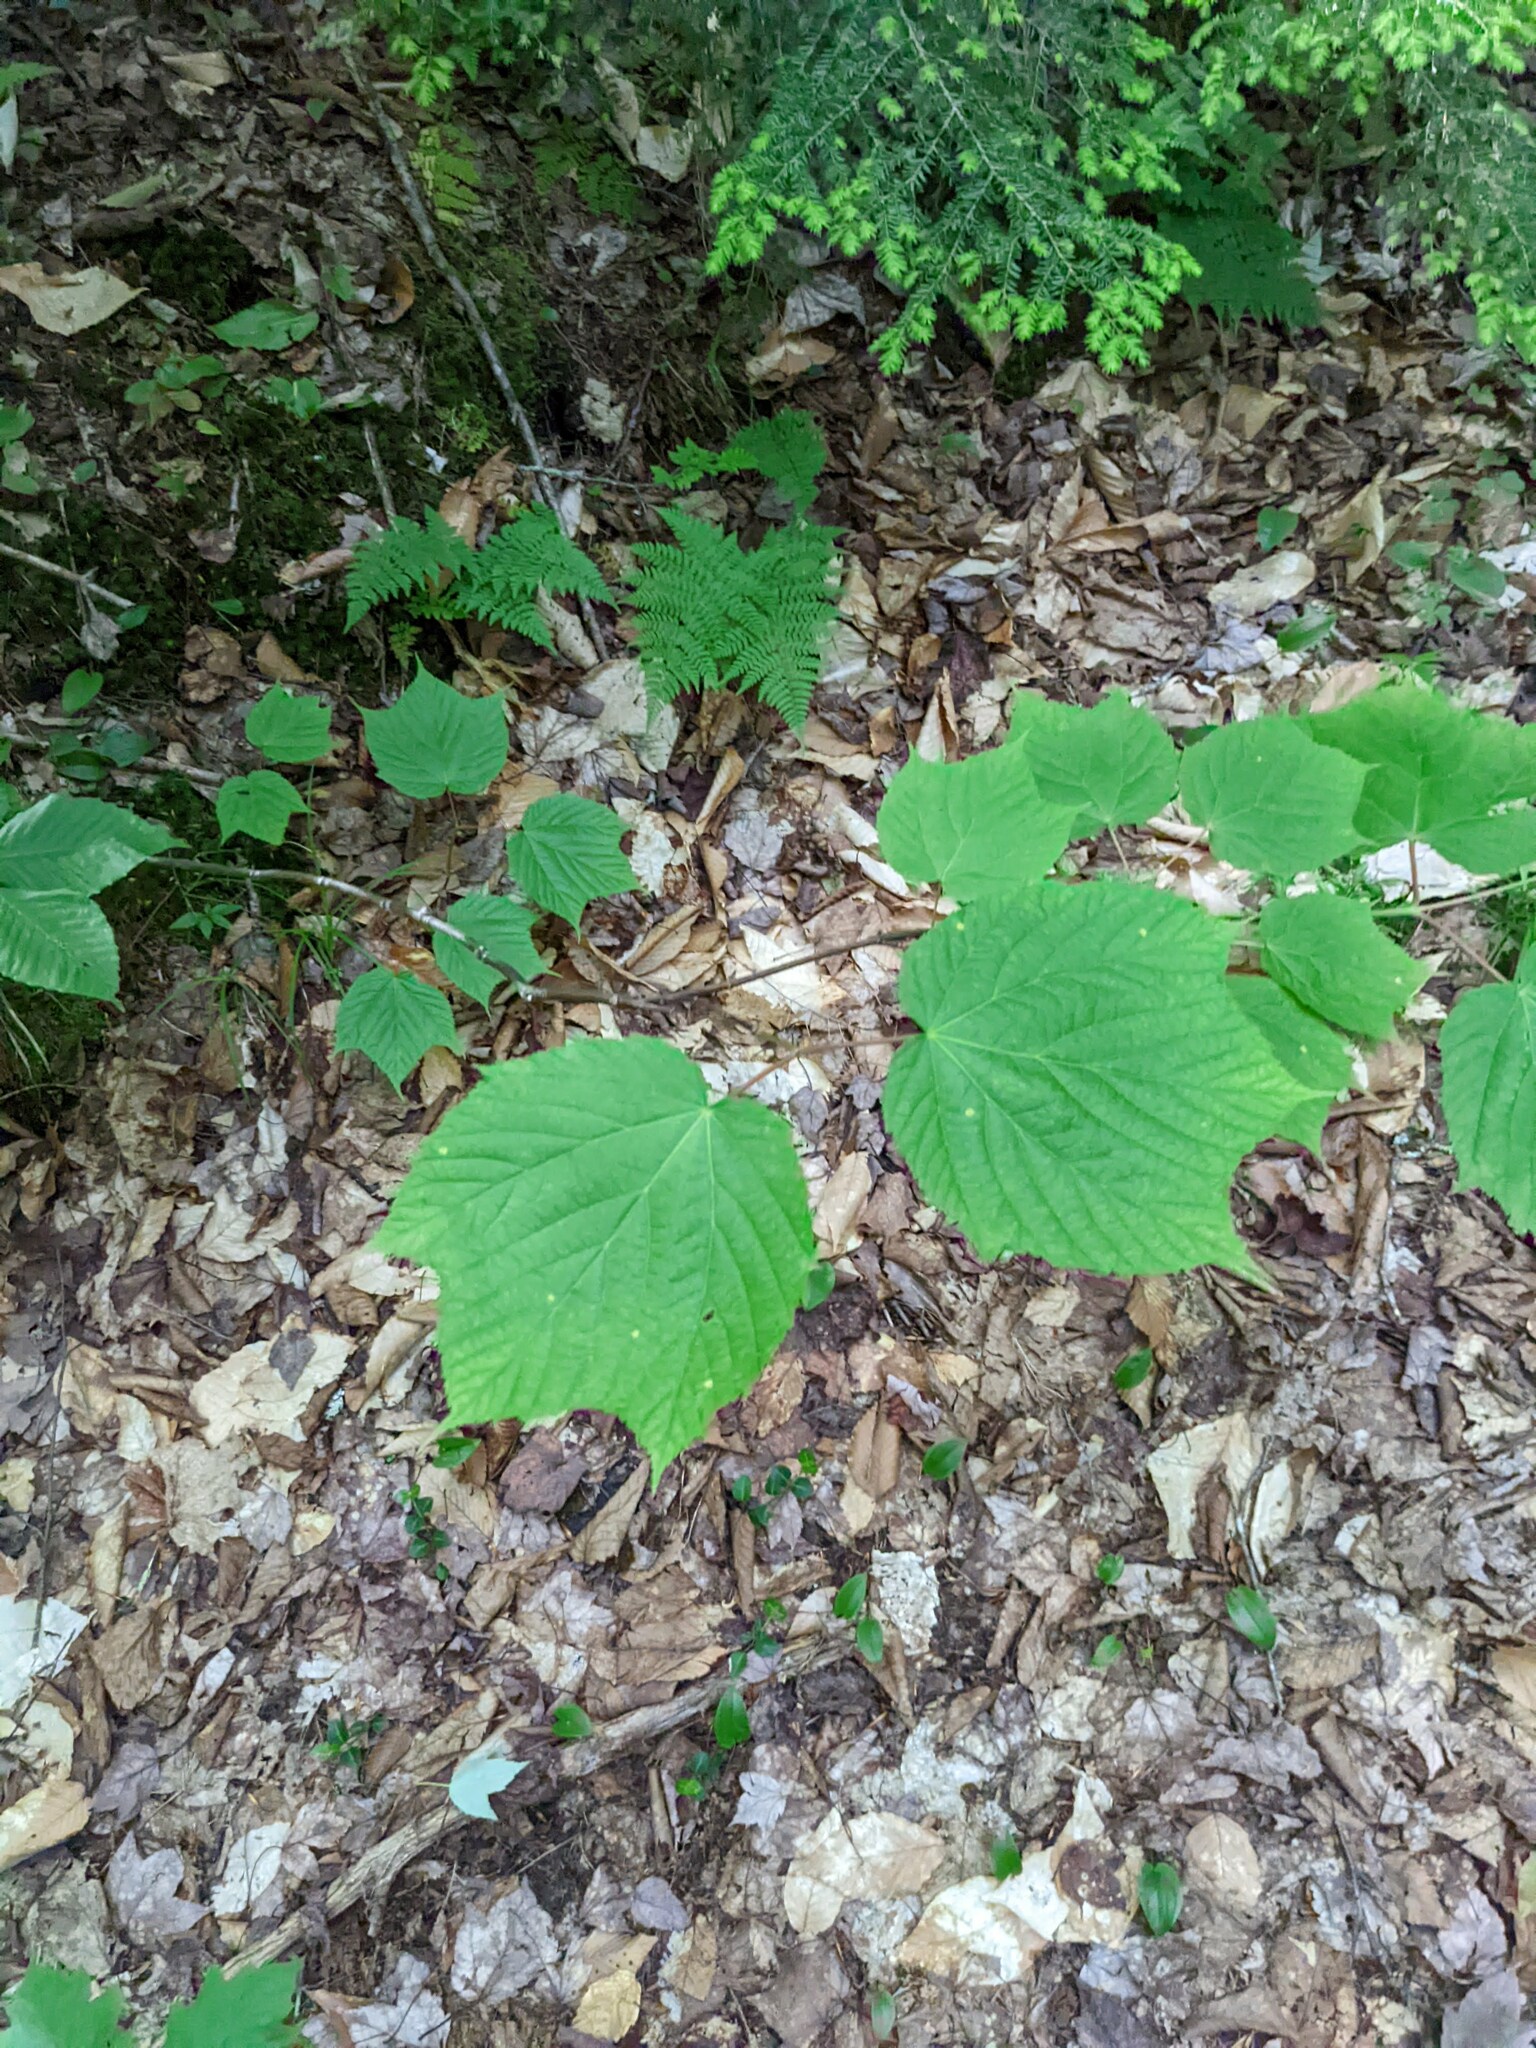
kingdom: Plantae
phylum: Tracheophyta
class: Magnoliopsida
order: Sapindales
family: Sapindaceae
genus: Acer
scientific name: Acer pensylvanicum
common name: Moosewood
